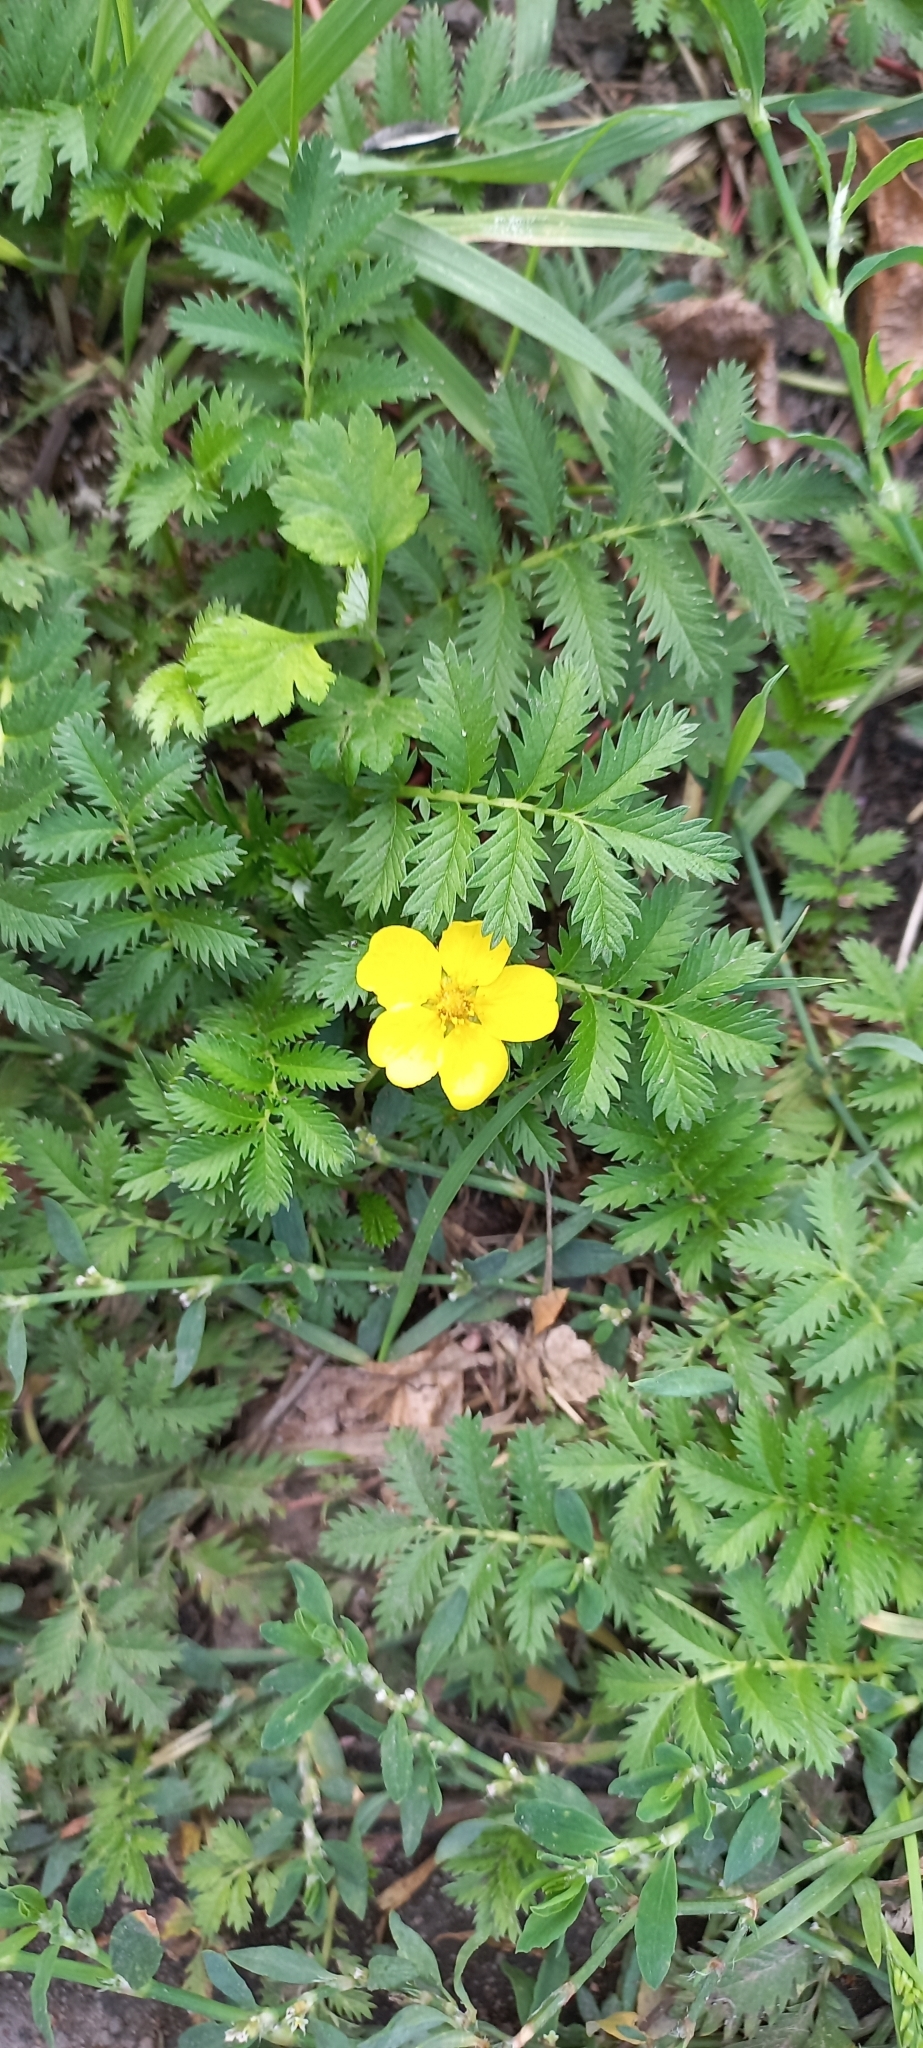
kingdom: Plantae
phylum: Tracheophyta
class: Magnoliopsida
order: Rosales
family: Rosaceae
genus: Argentina
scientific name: Argentina anserina
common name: Common silverweed
